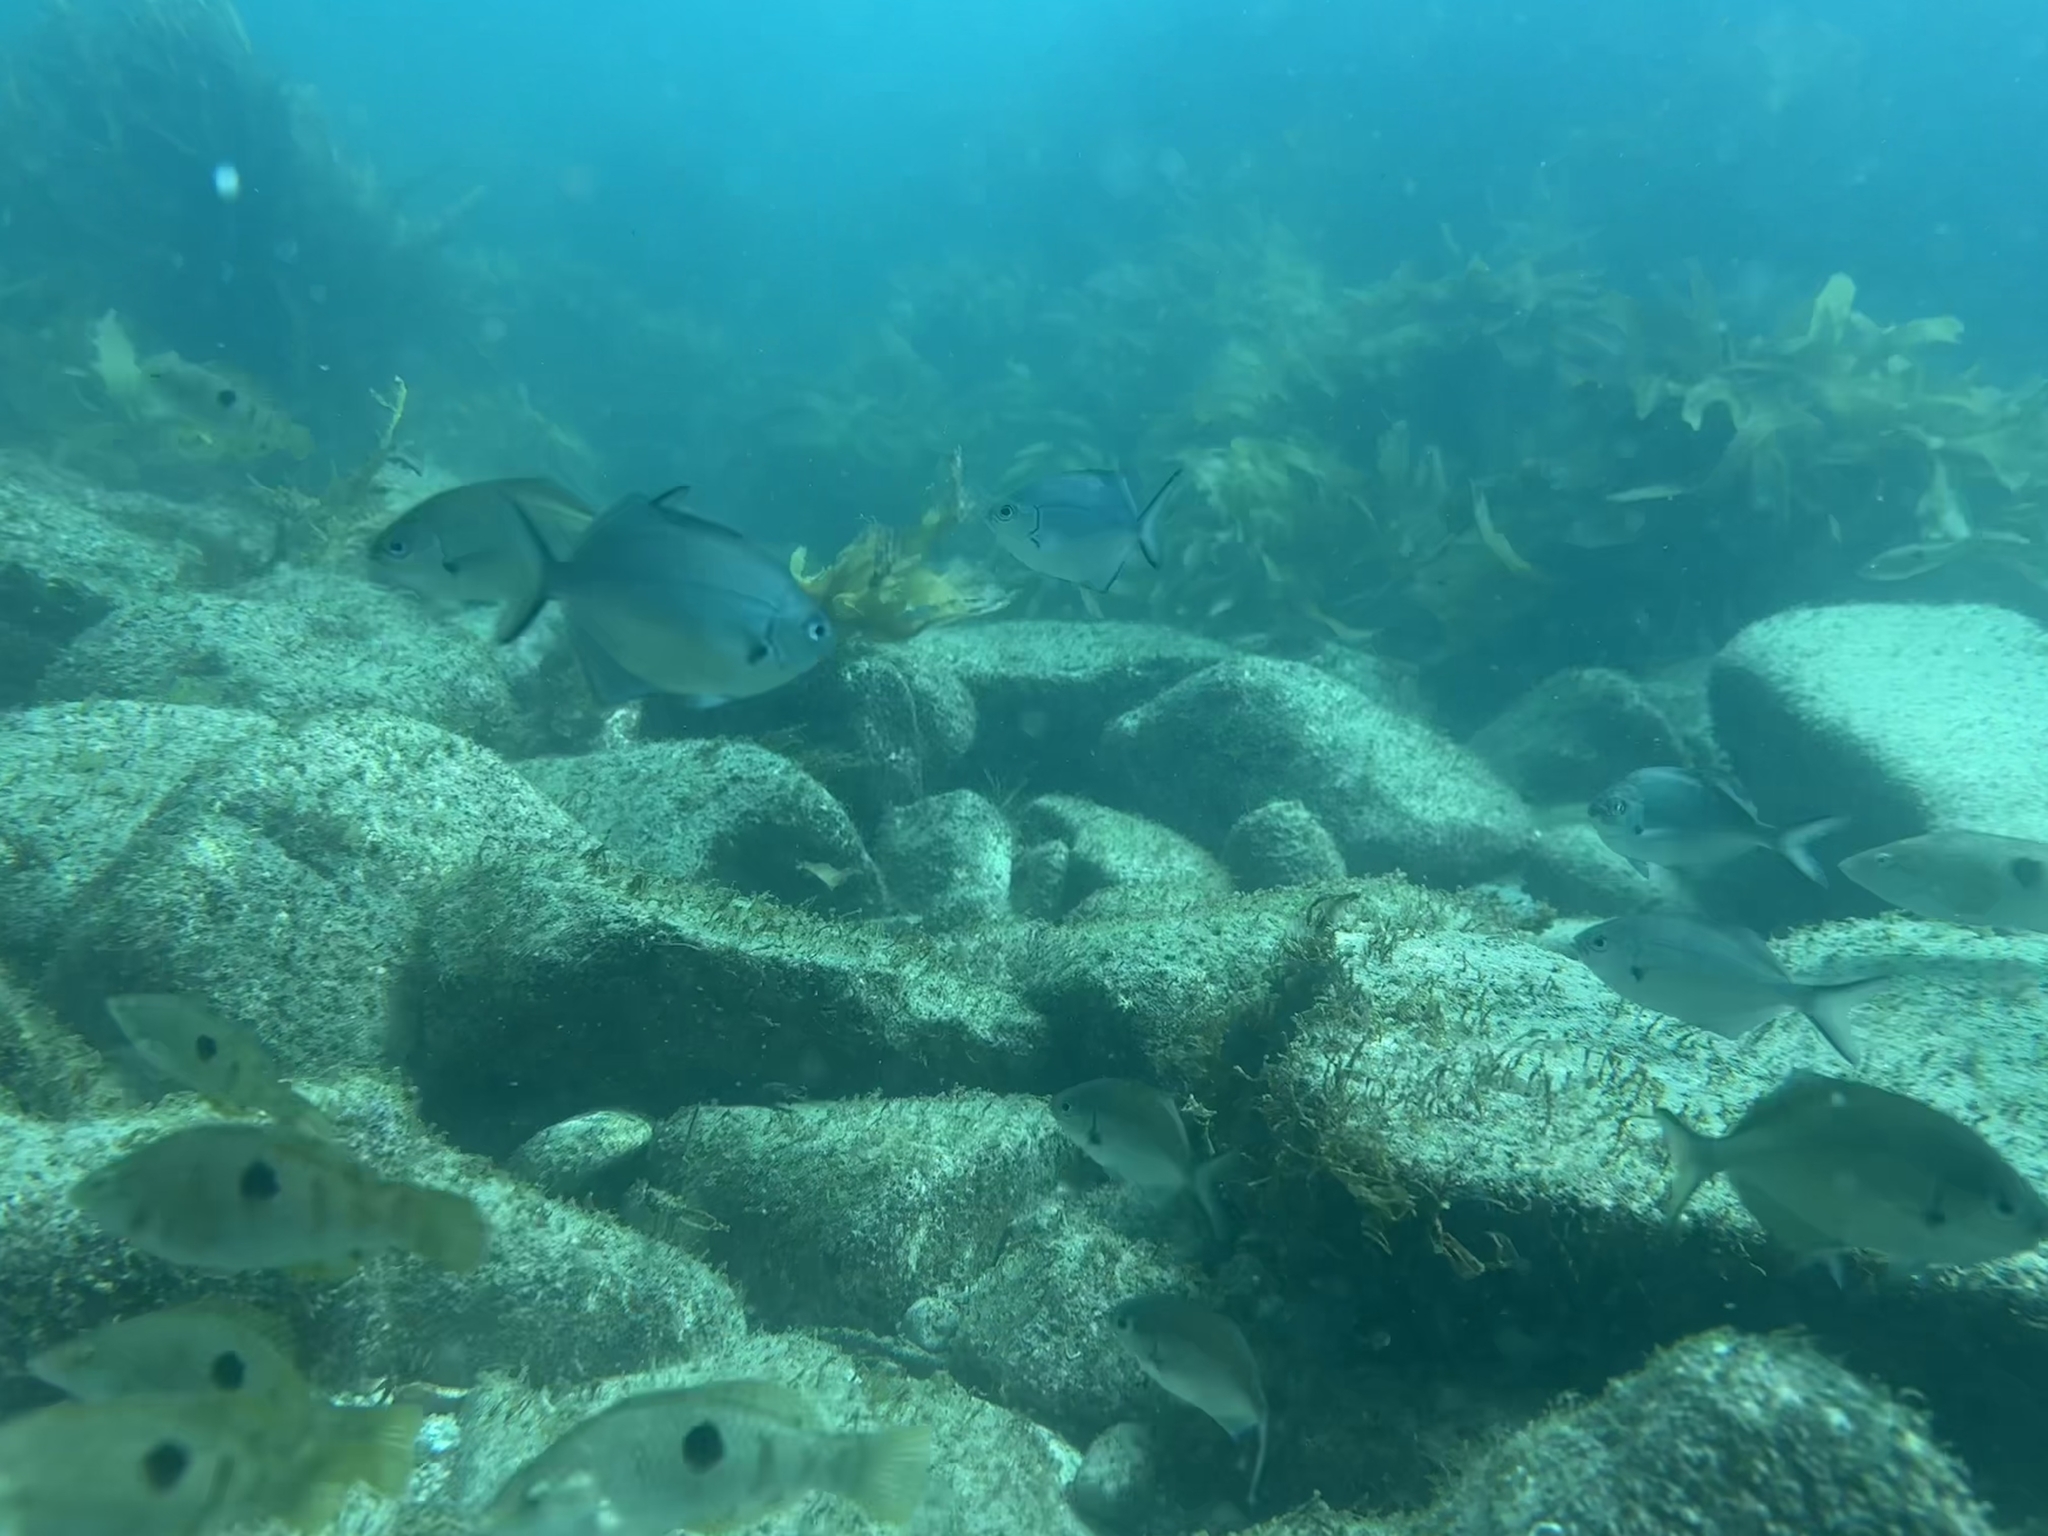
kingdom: Animalia
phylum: Chordata
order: Perciformes
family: Kyphosidae
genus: Scorpis
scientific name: Scorpis lineolata
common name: Sweep
